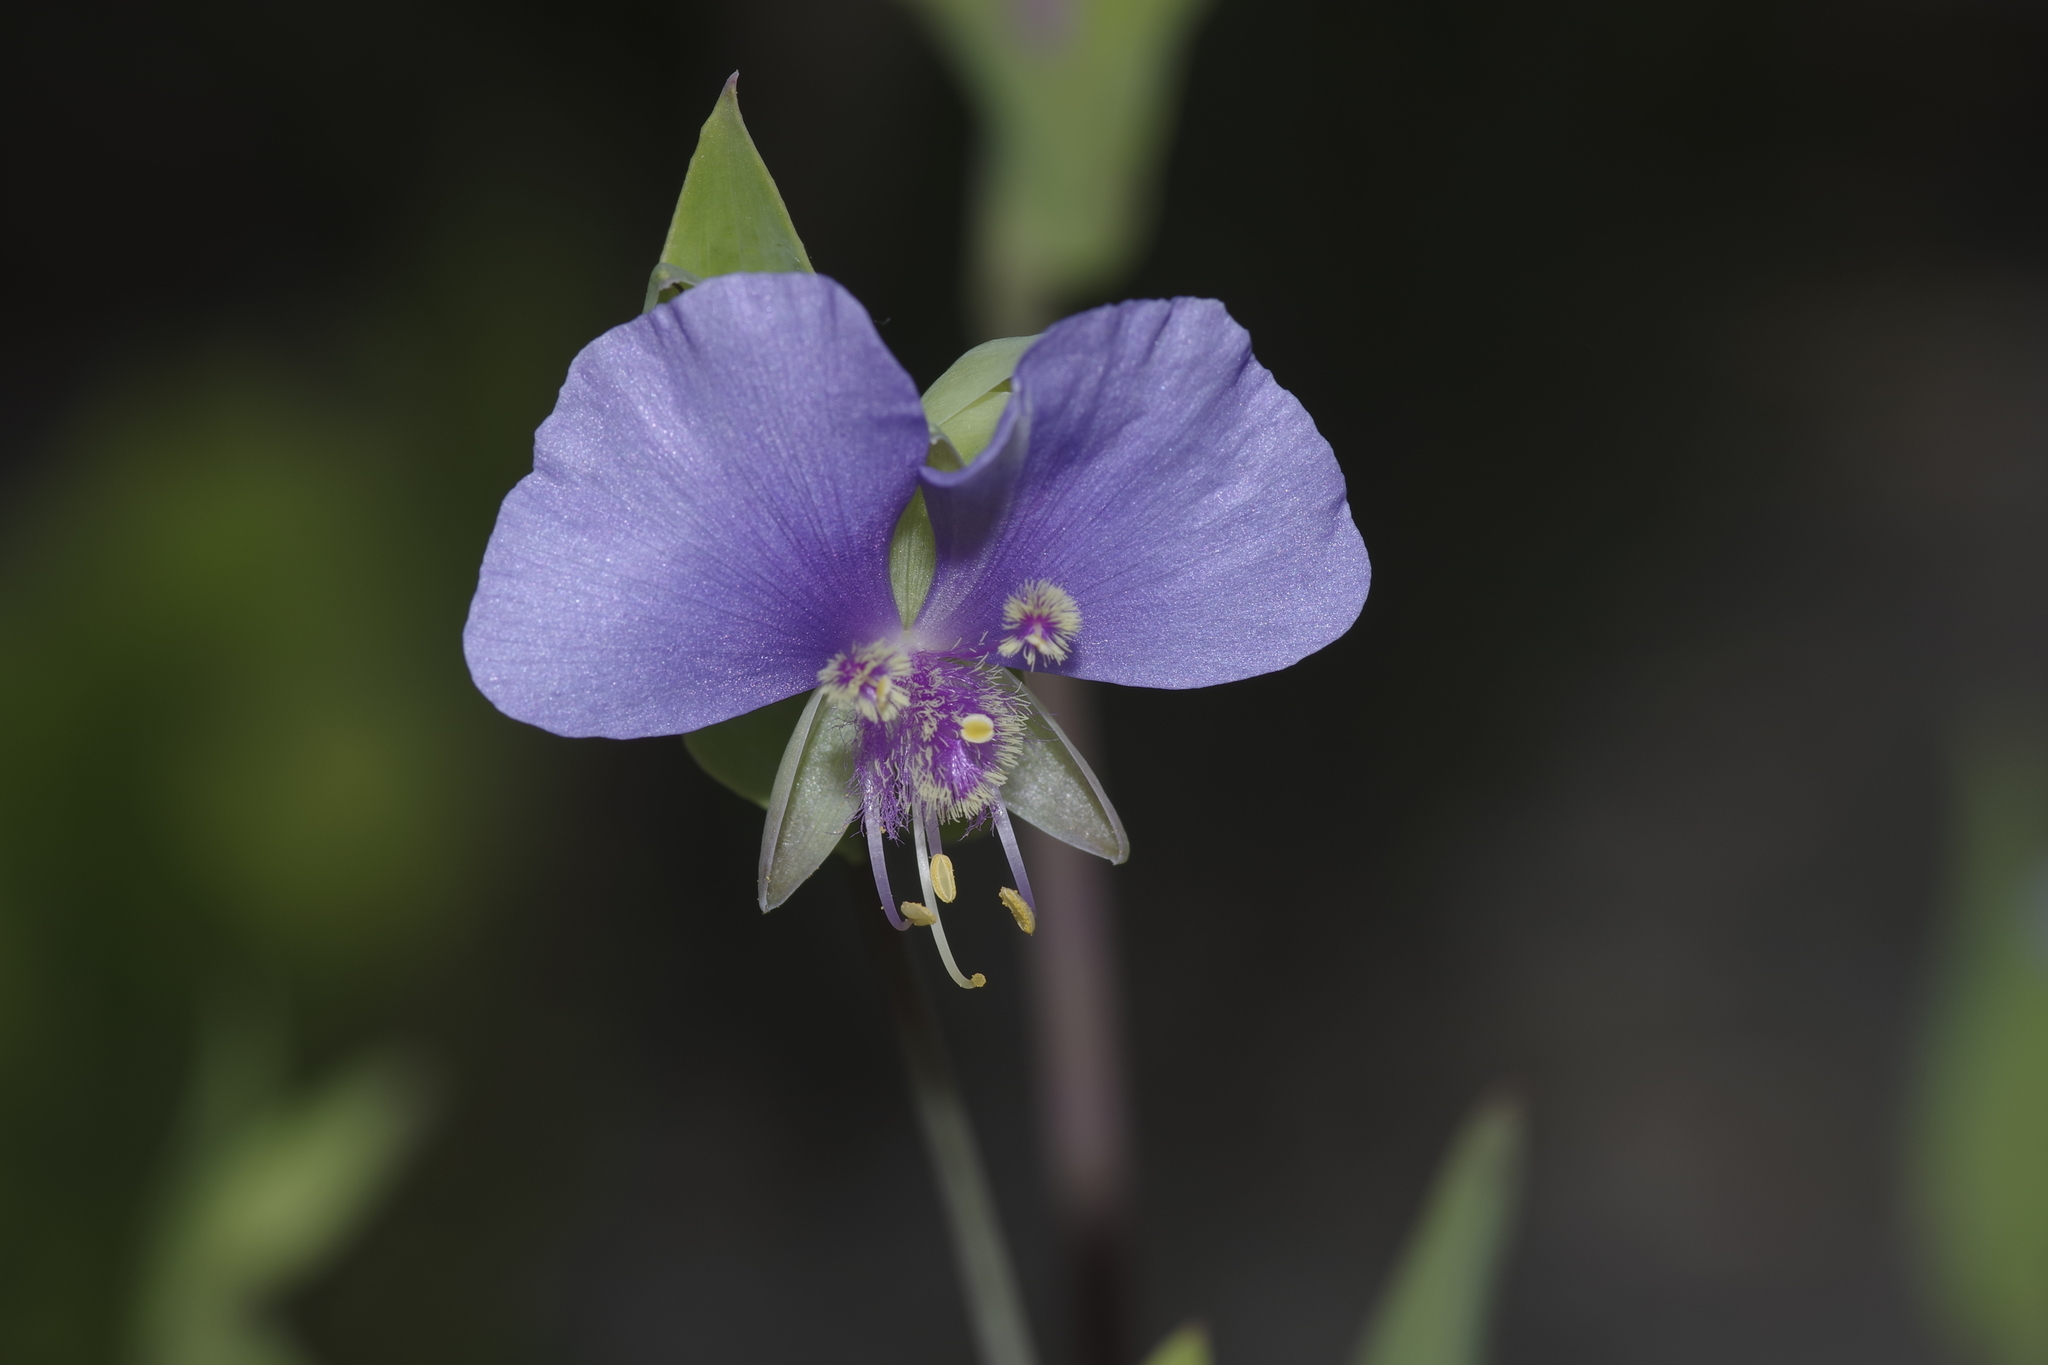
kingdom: Plantae
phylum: Tracheophyta
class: Liliopsida
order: Commelinales
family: Commelinaceae
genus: Tinantia
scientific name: Tinantia anomala
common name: False dayflower
